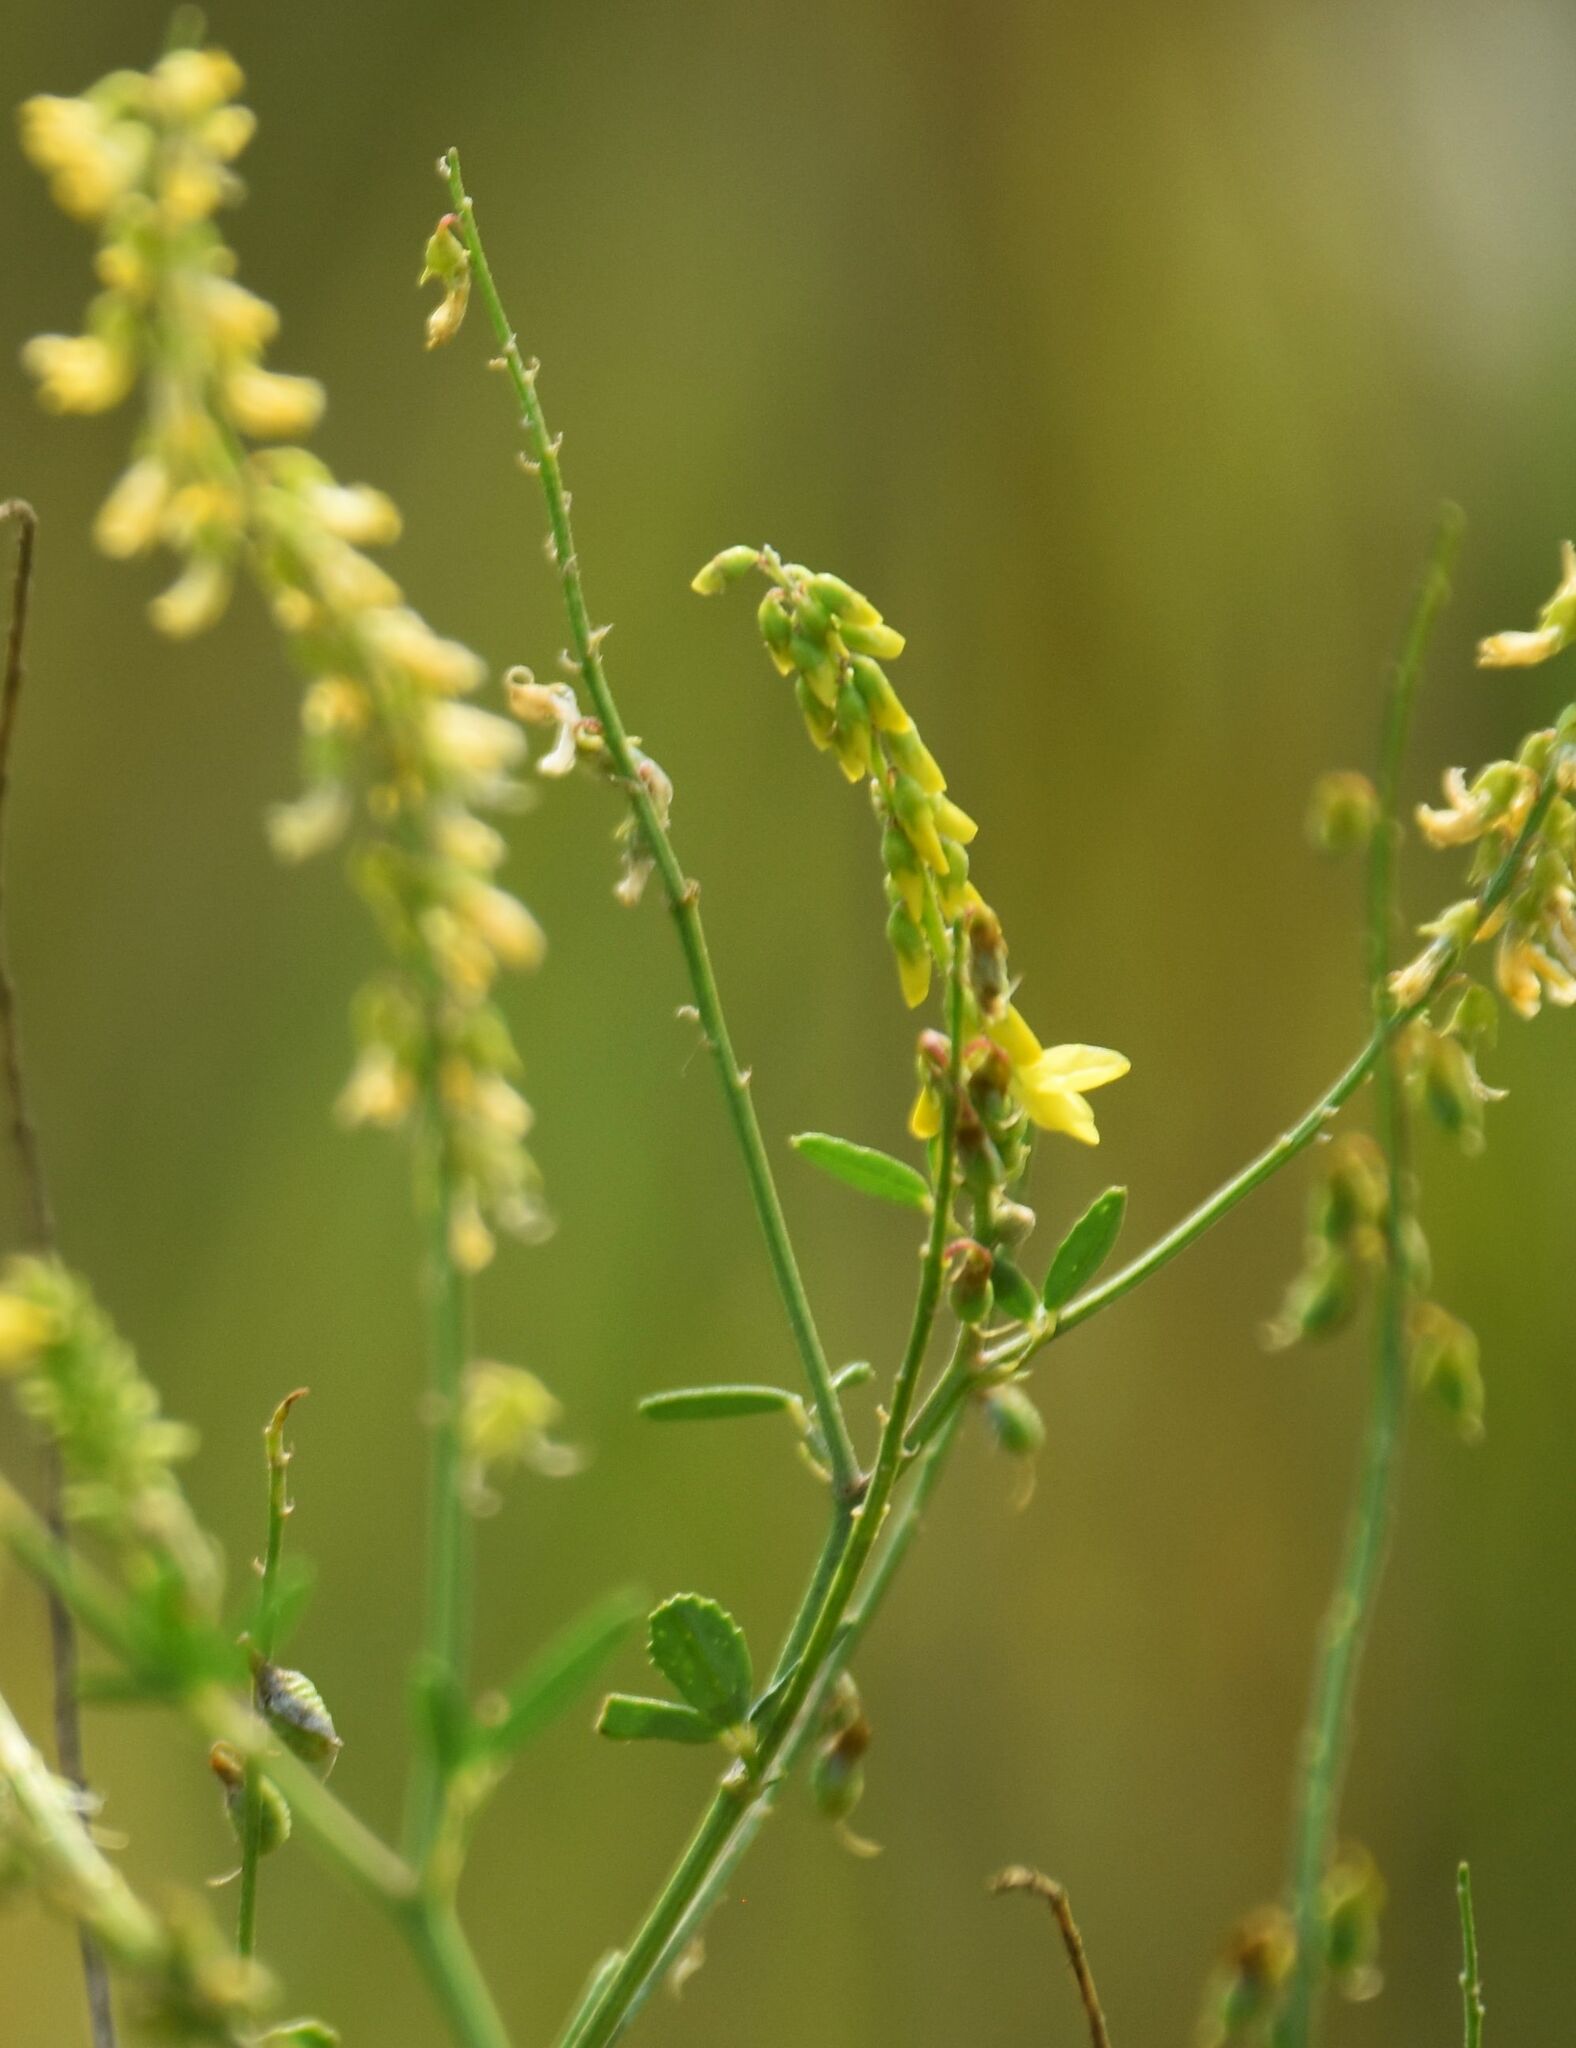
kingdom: Plantae
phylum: Tracheophyta
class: Magnoliopsida
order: Fabales
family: Fabaceae
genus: Melilotus
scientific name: Melilotus officinalis
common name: Sweetclover
